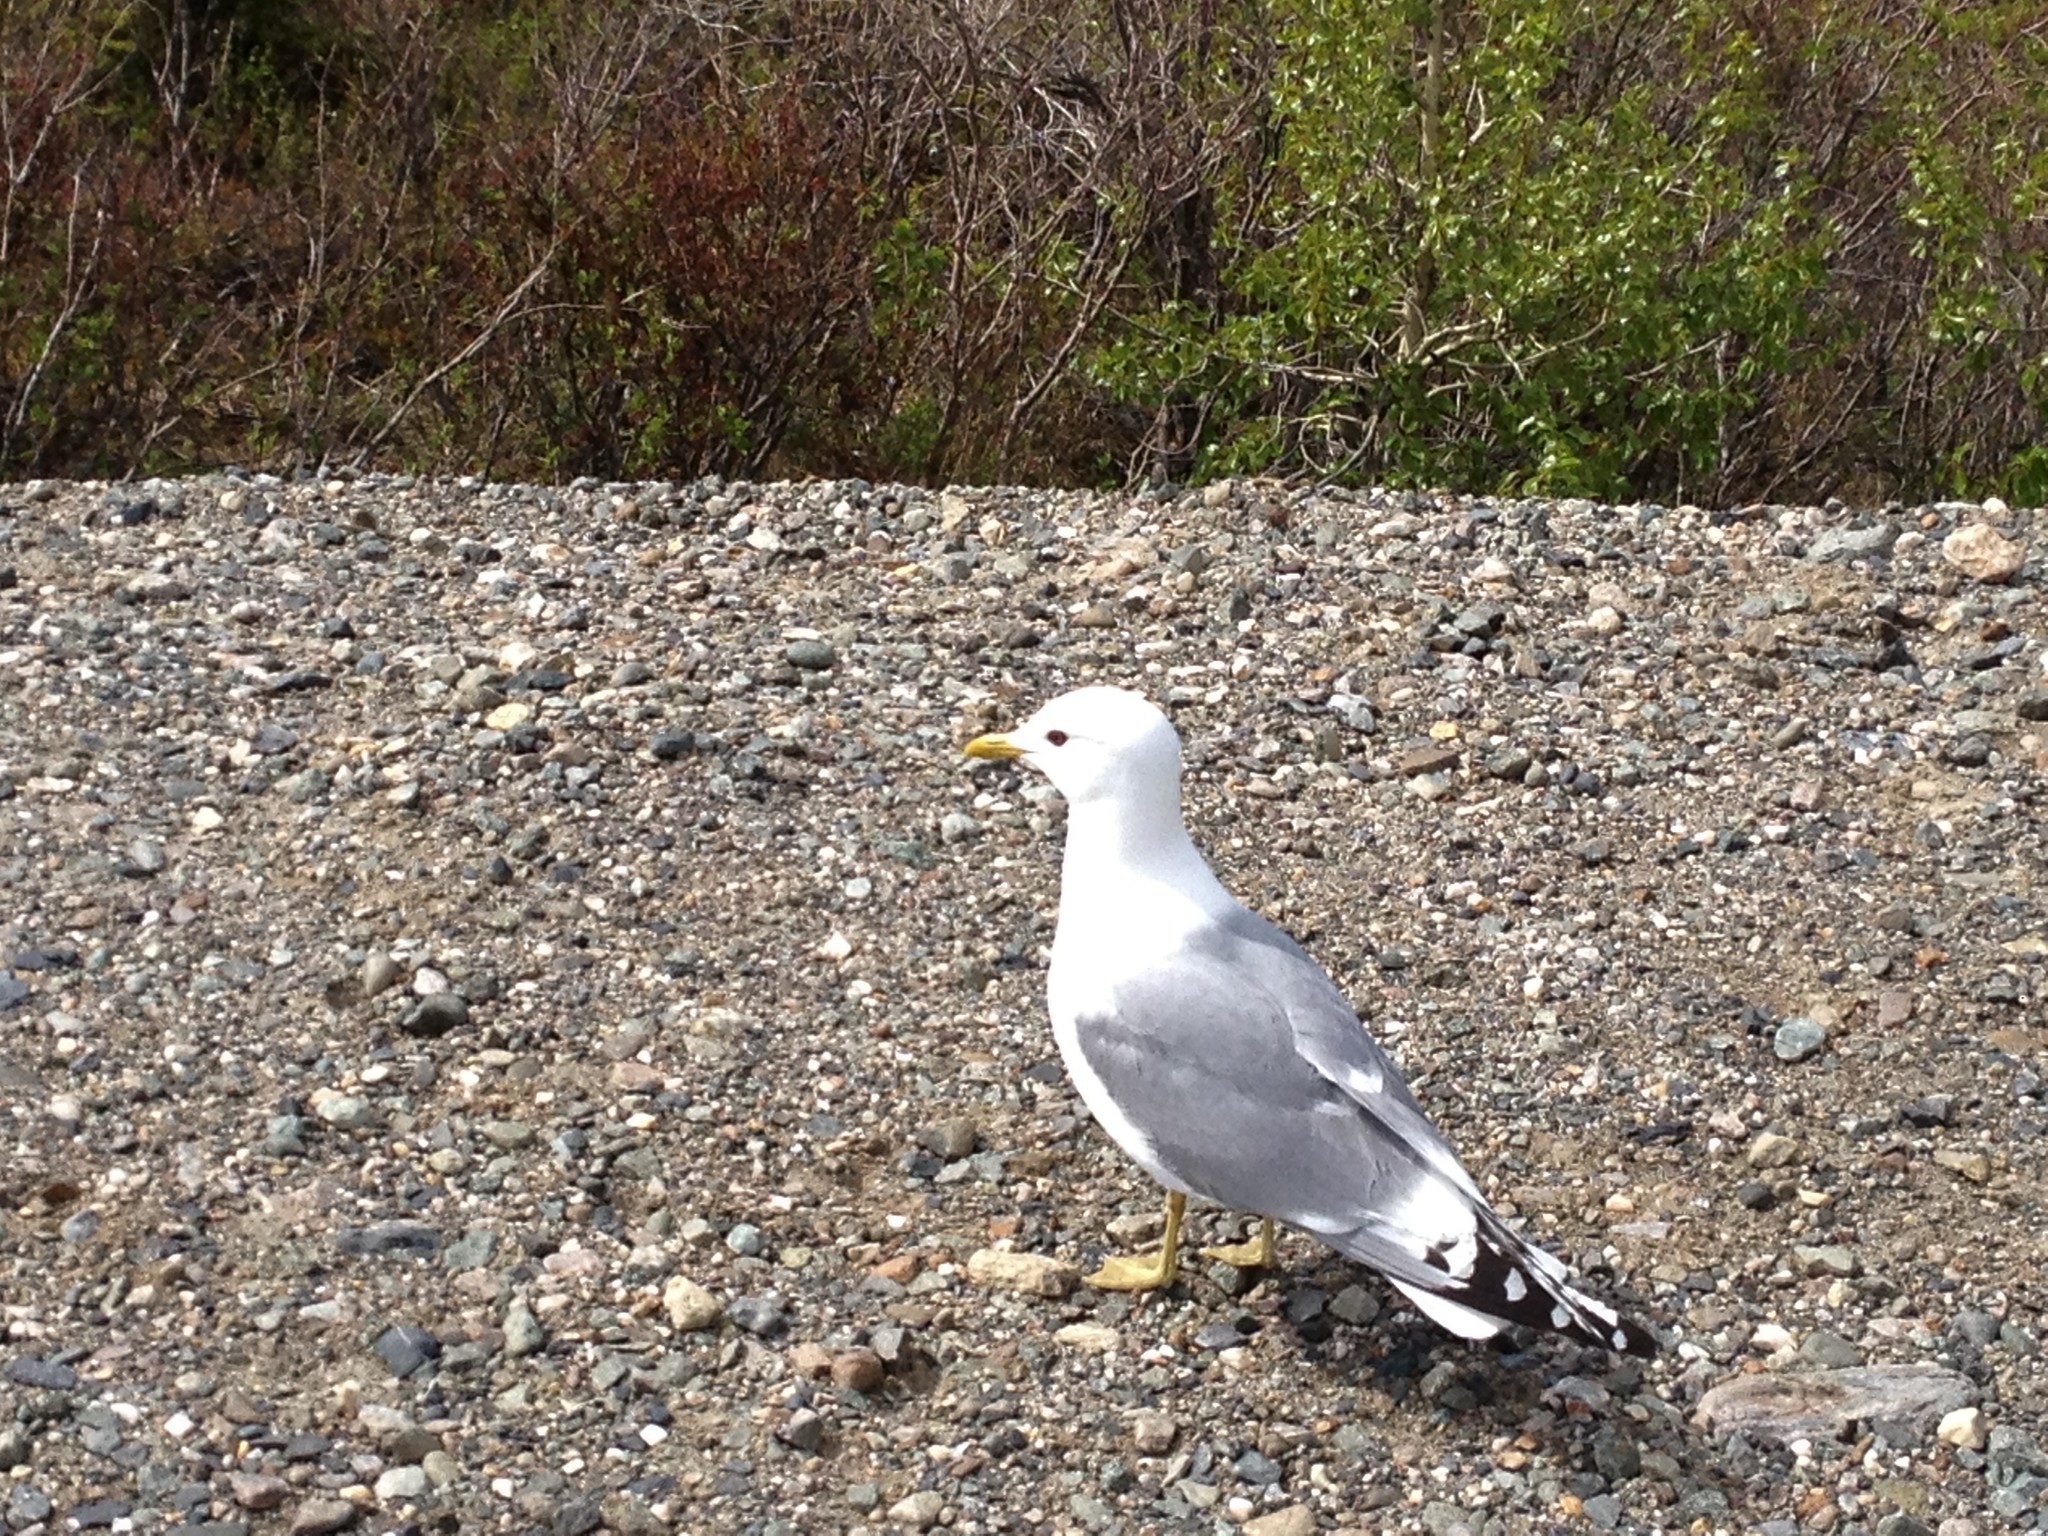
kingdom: Animalia
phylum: Chordata
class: Aves
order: Charadriiformes
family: Laridae
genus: Larus
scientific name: Larus brachyrhynchus
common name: Short-billed gull
